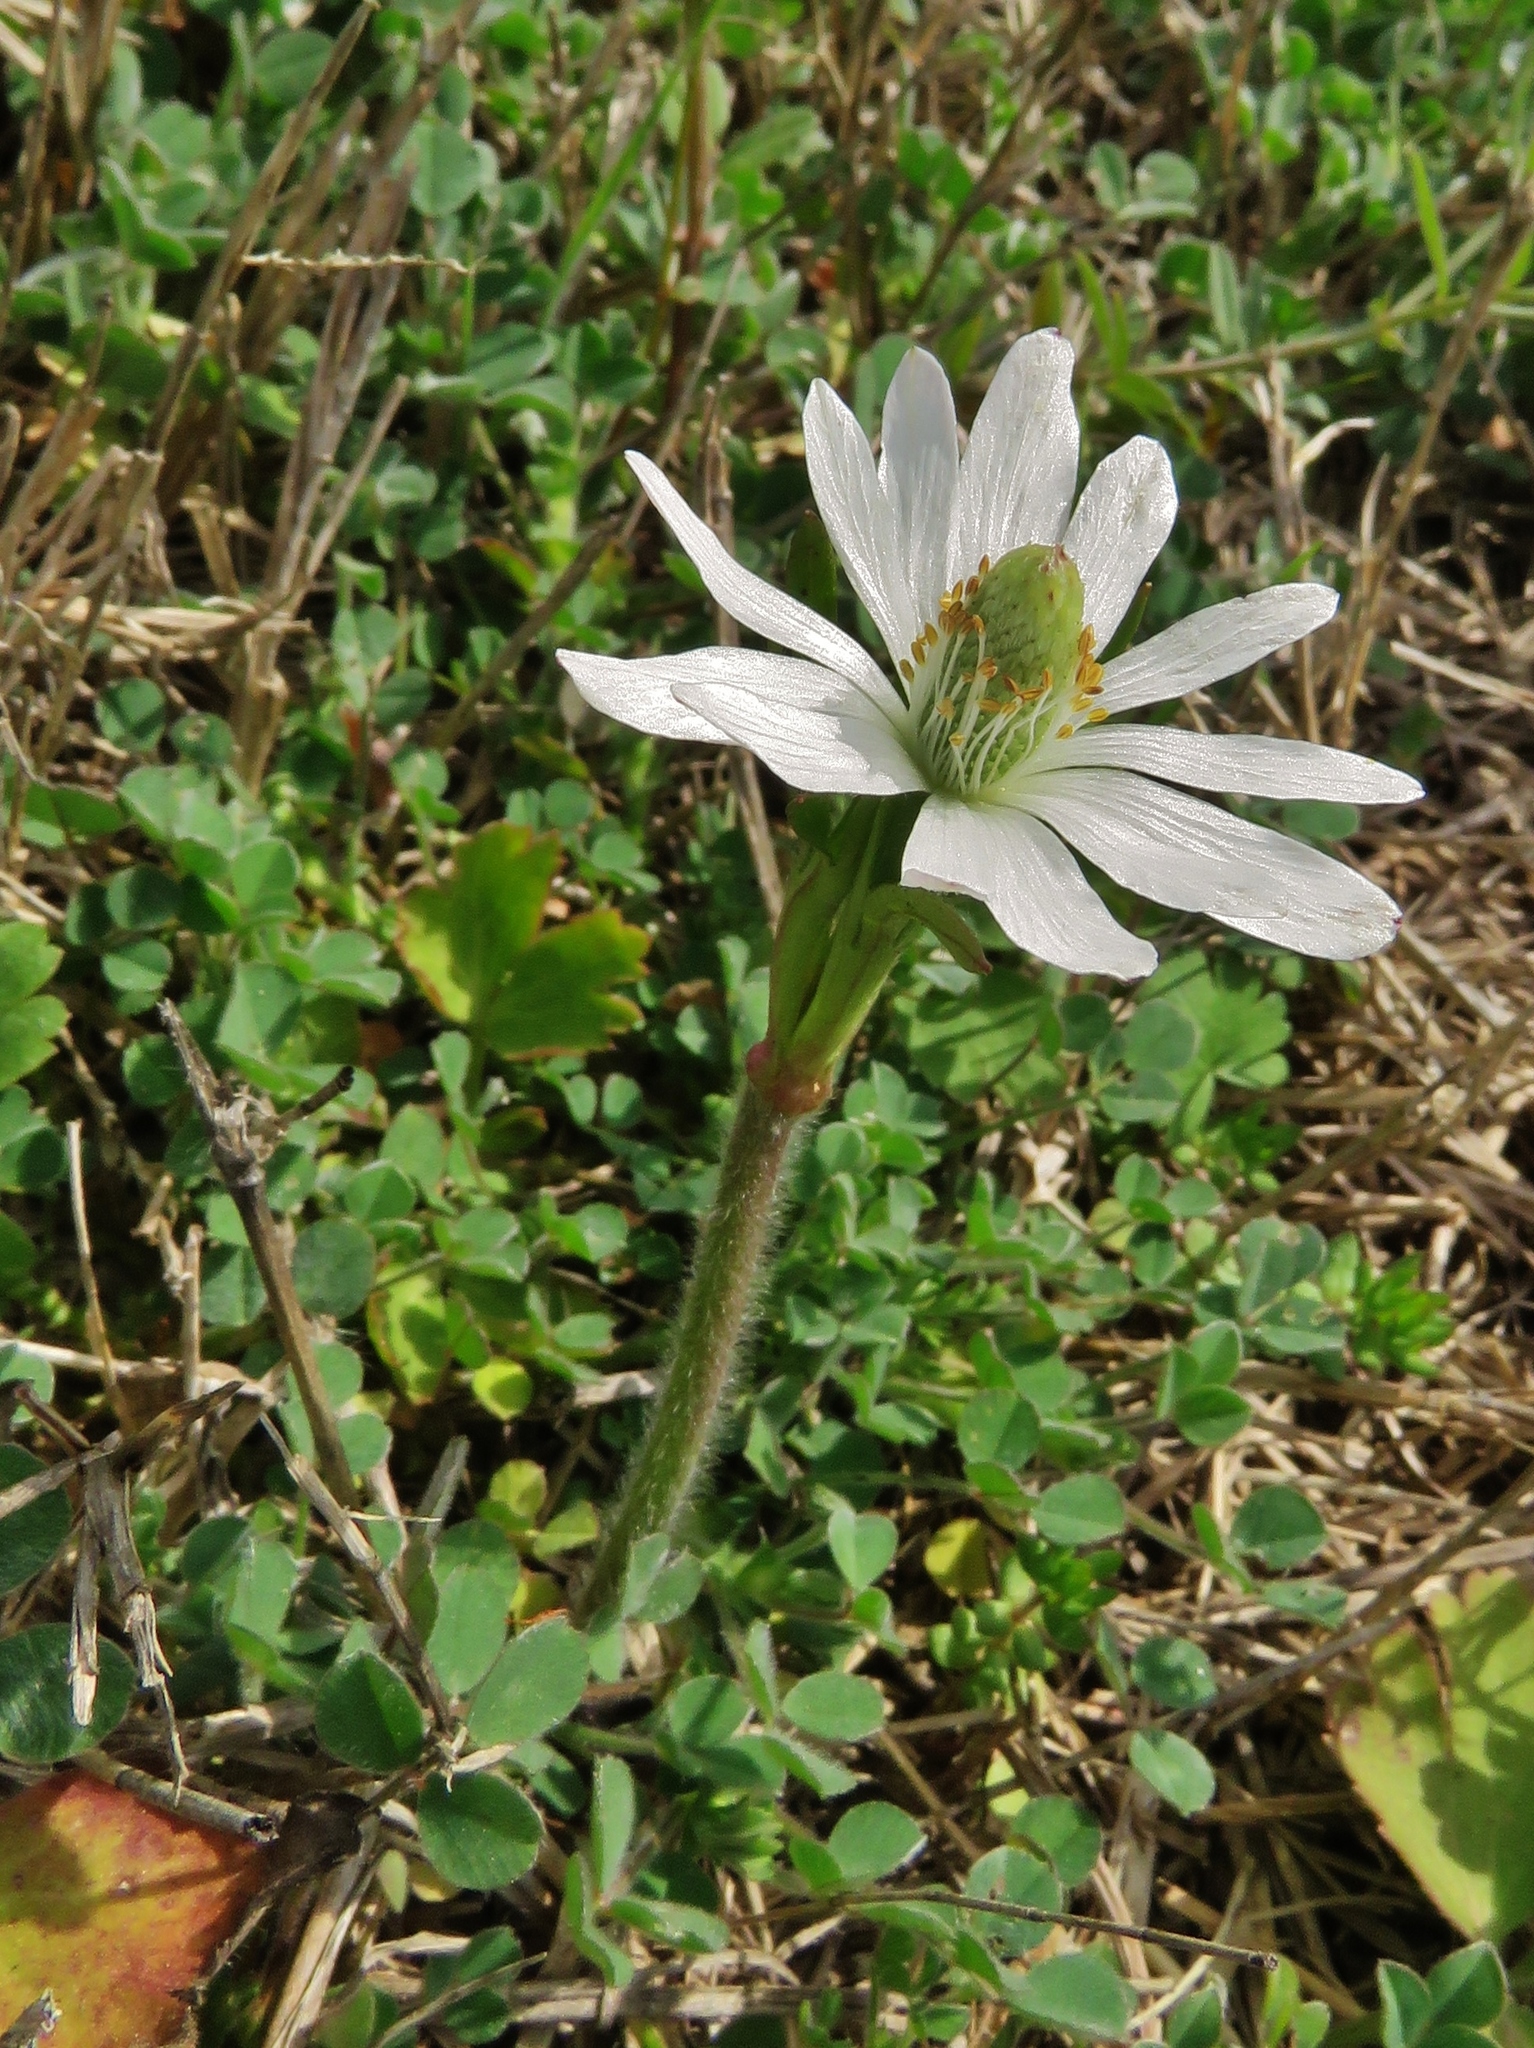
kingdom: Plantae
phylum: Tracheophyta
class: Magnoliopsida
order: Ranunculales
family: Ranunculaceae
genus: Anemone
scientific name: Anemone berlandieri
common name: Ten-petal anemone
